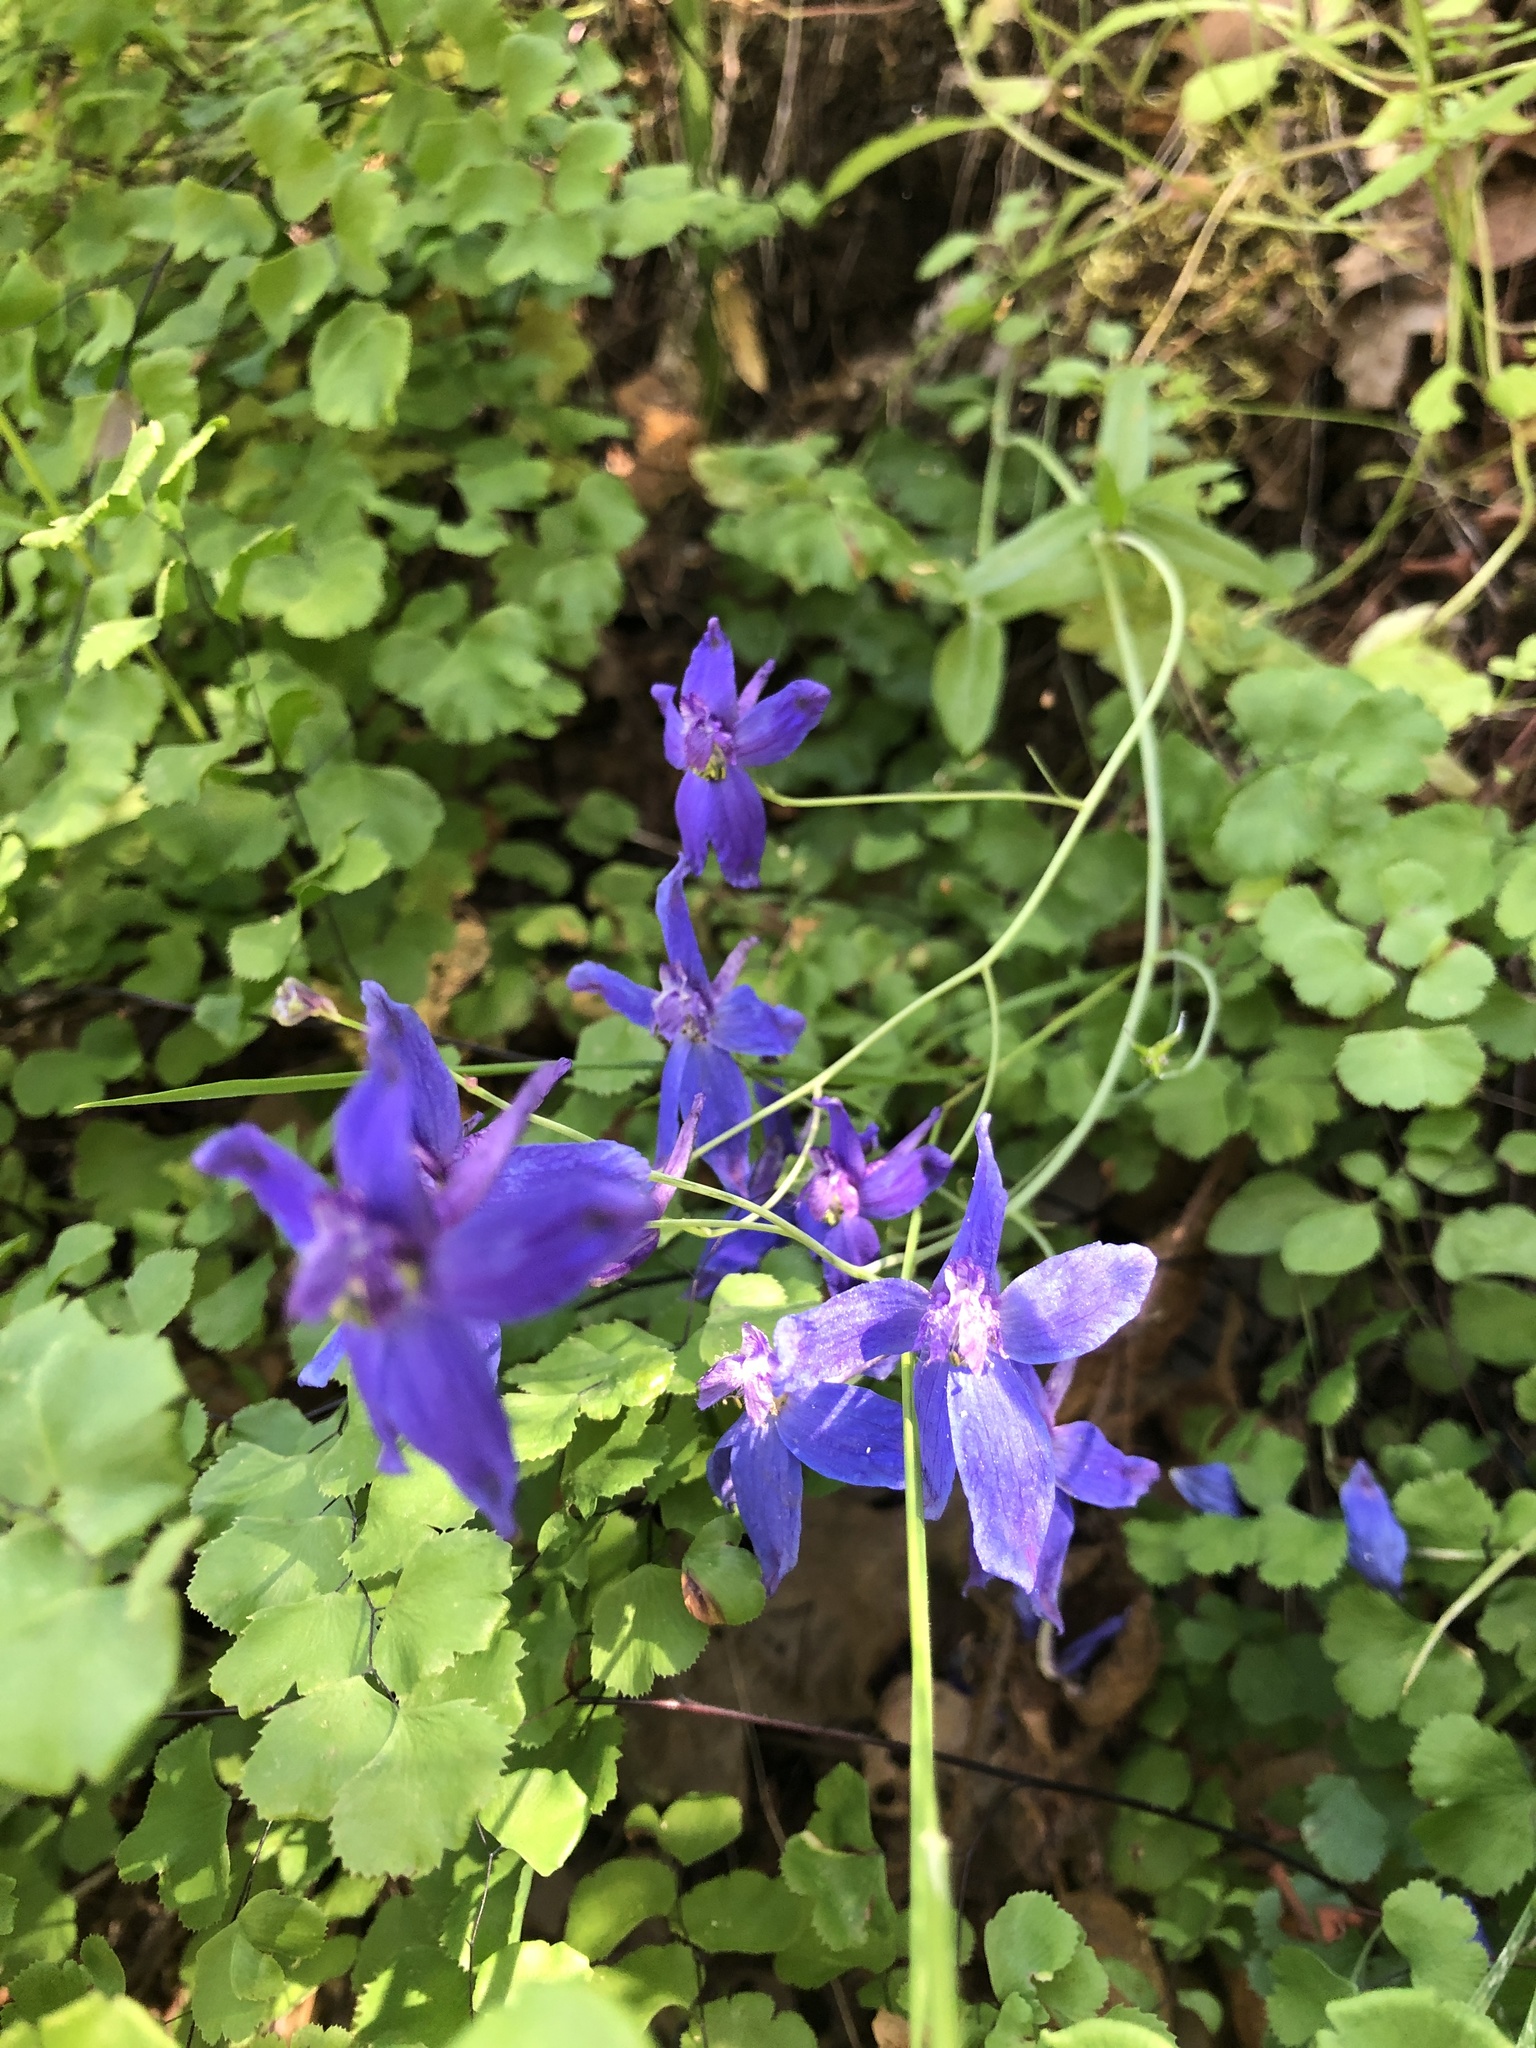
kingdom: Plantae
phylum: Tracheophyta
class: Magnoliopsida
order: Ranunculales
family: Ranunculaceae
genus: Delphinium
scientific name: Delphinium patens
